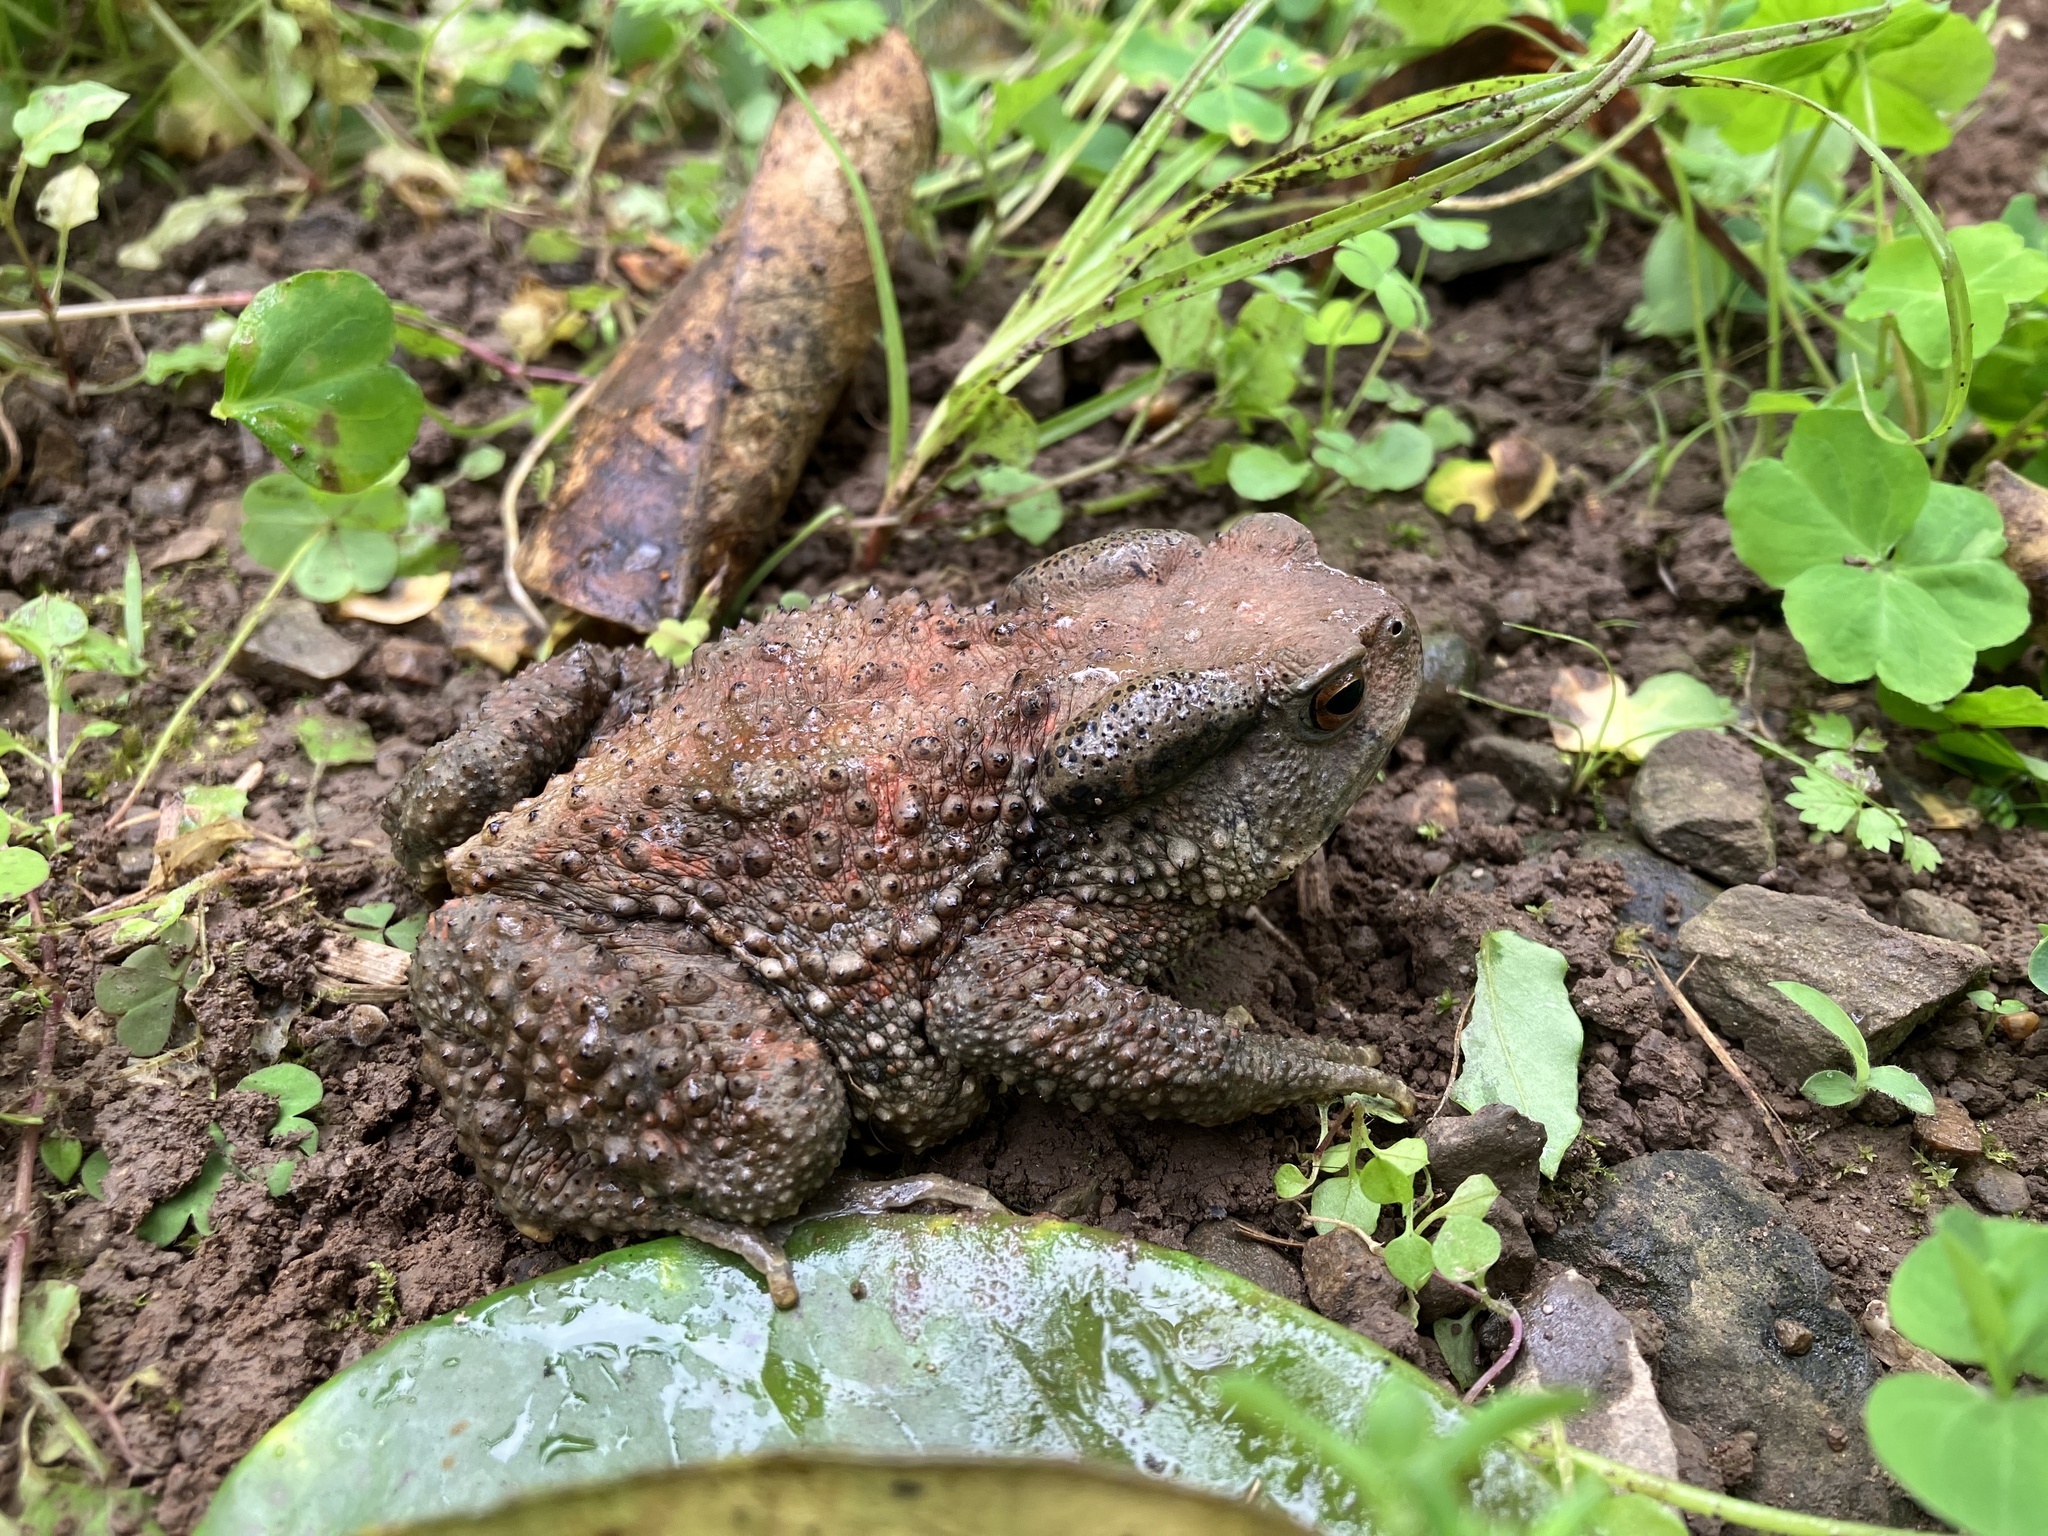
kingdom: Animalia
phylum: Chordata
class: Amphibia
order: Anura
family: Bufonidae
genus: Bufo
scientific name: Bufo bankorensis
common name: Bankor toad
